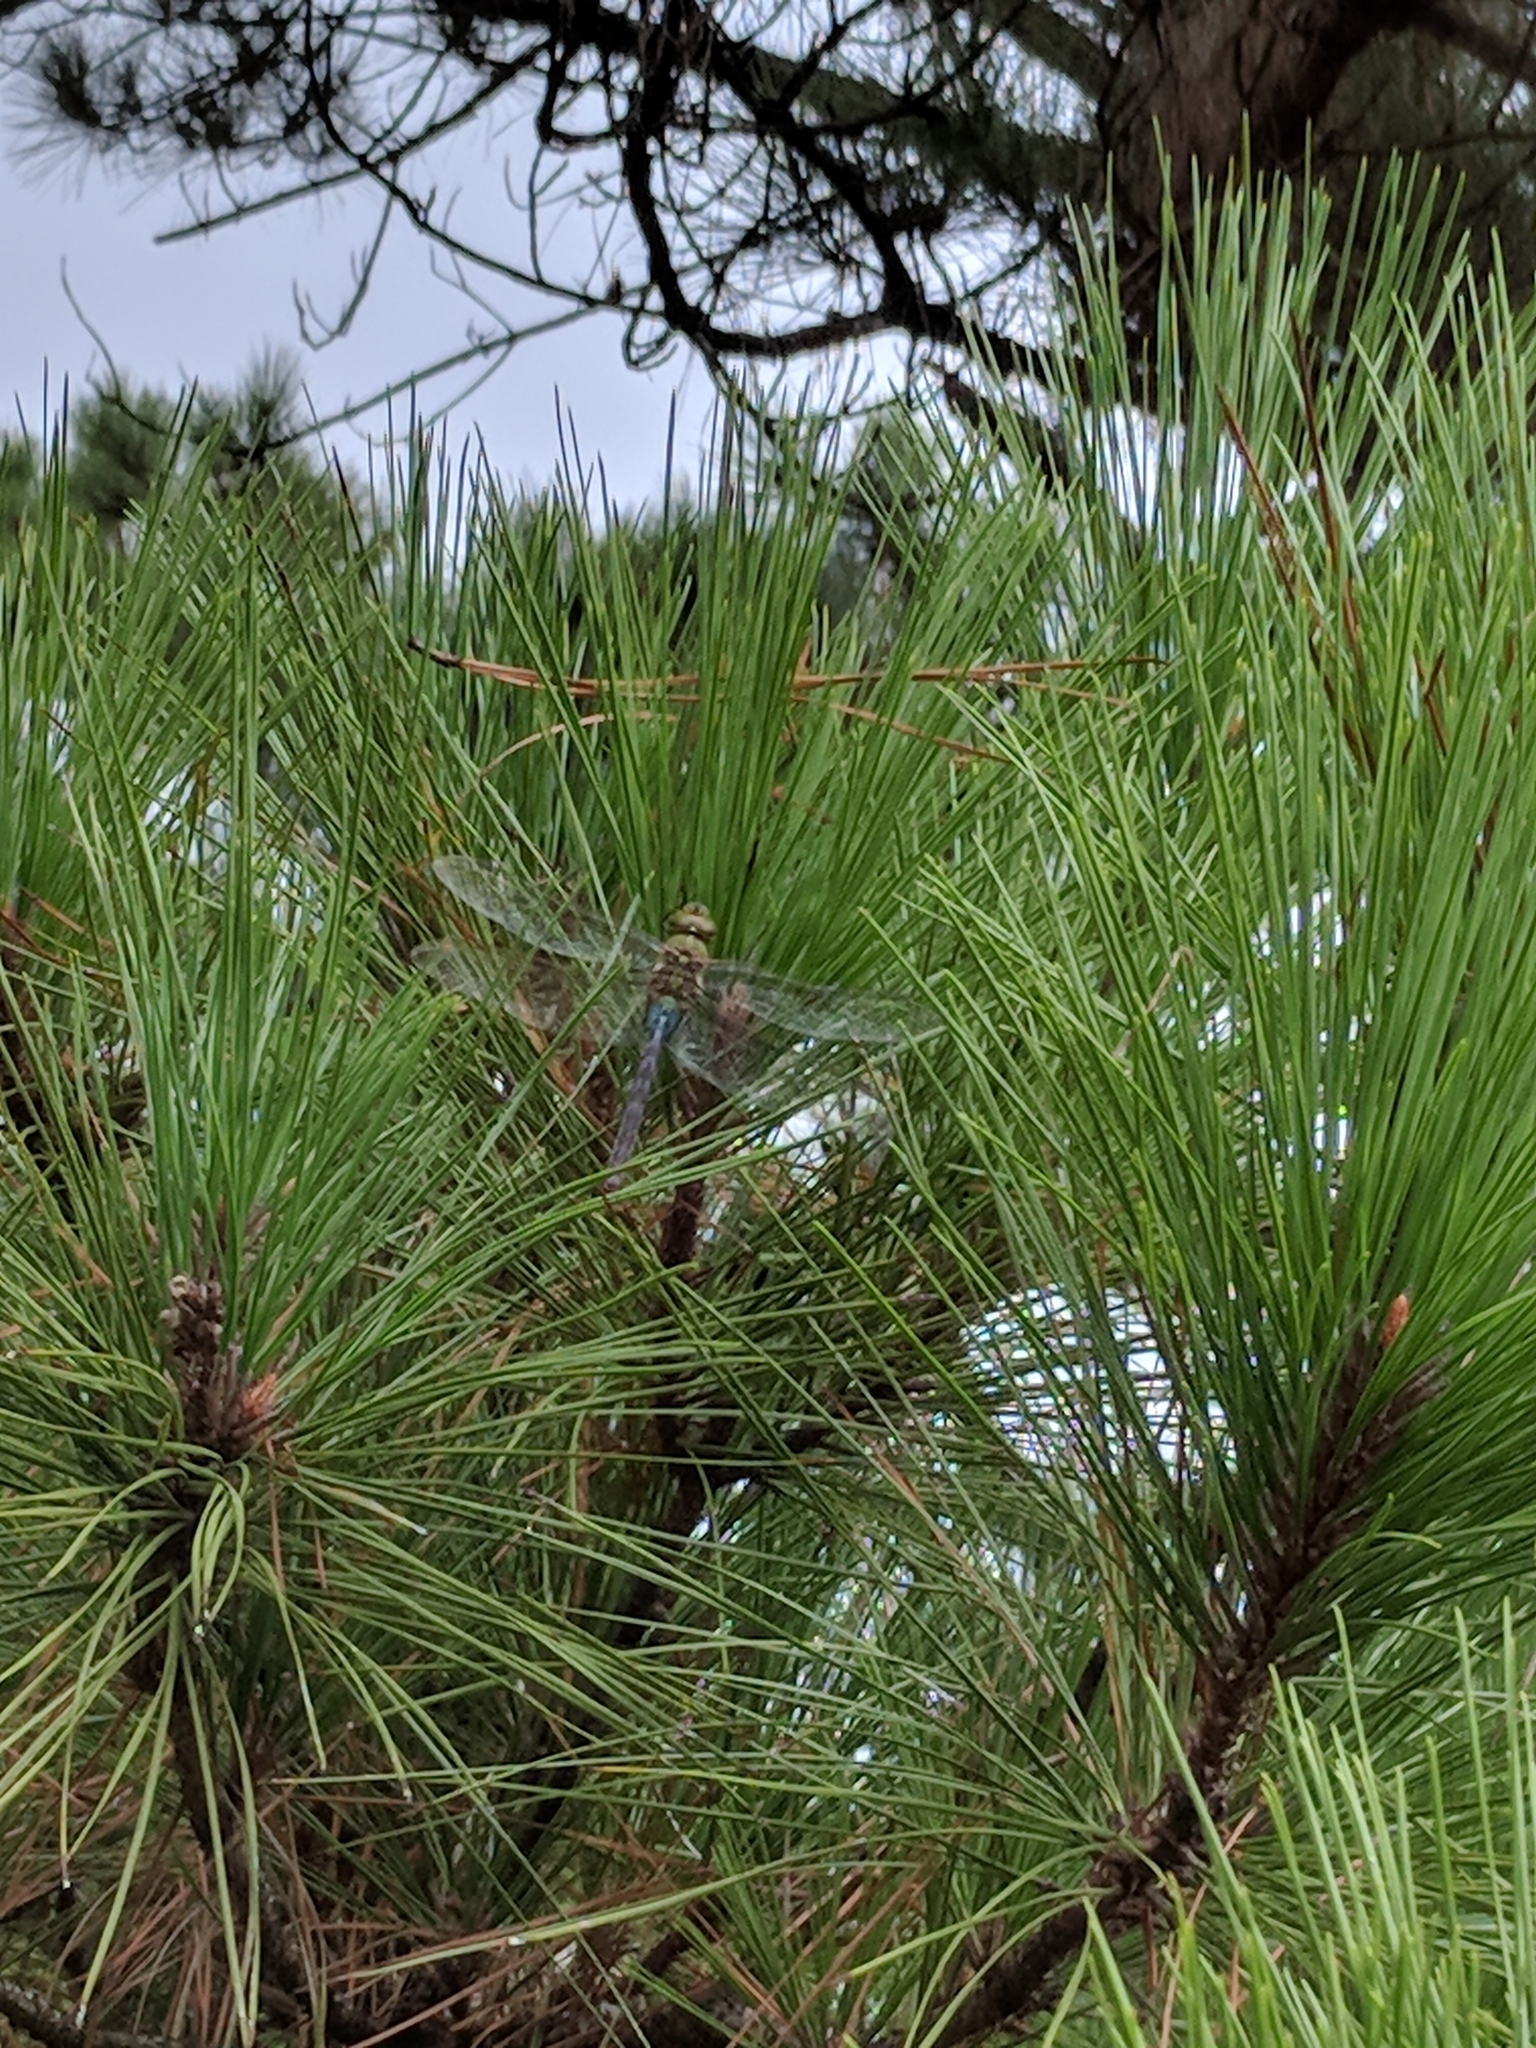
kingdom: Animalia
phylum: Arthropoda
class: Insecta
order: Odonata
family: Aeshnidae
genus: Anax
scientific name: Anax junius
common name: Common green darner
